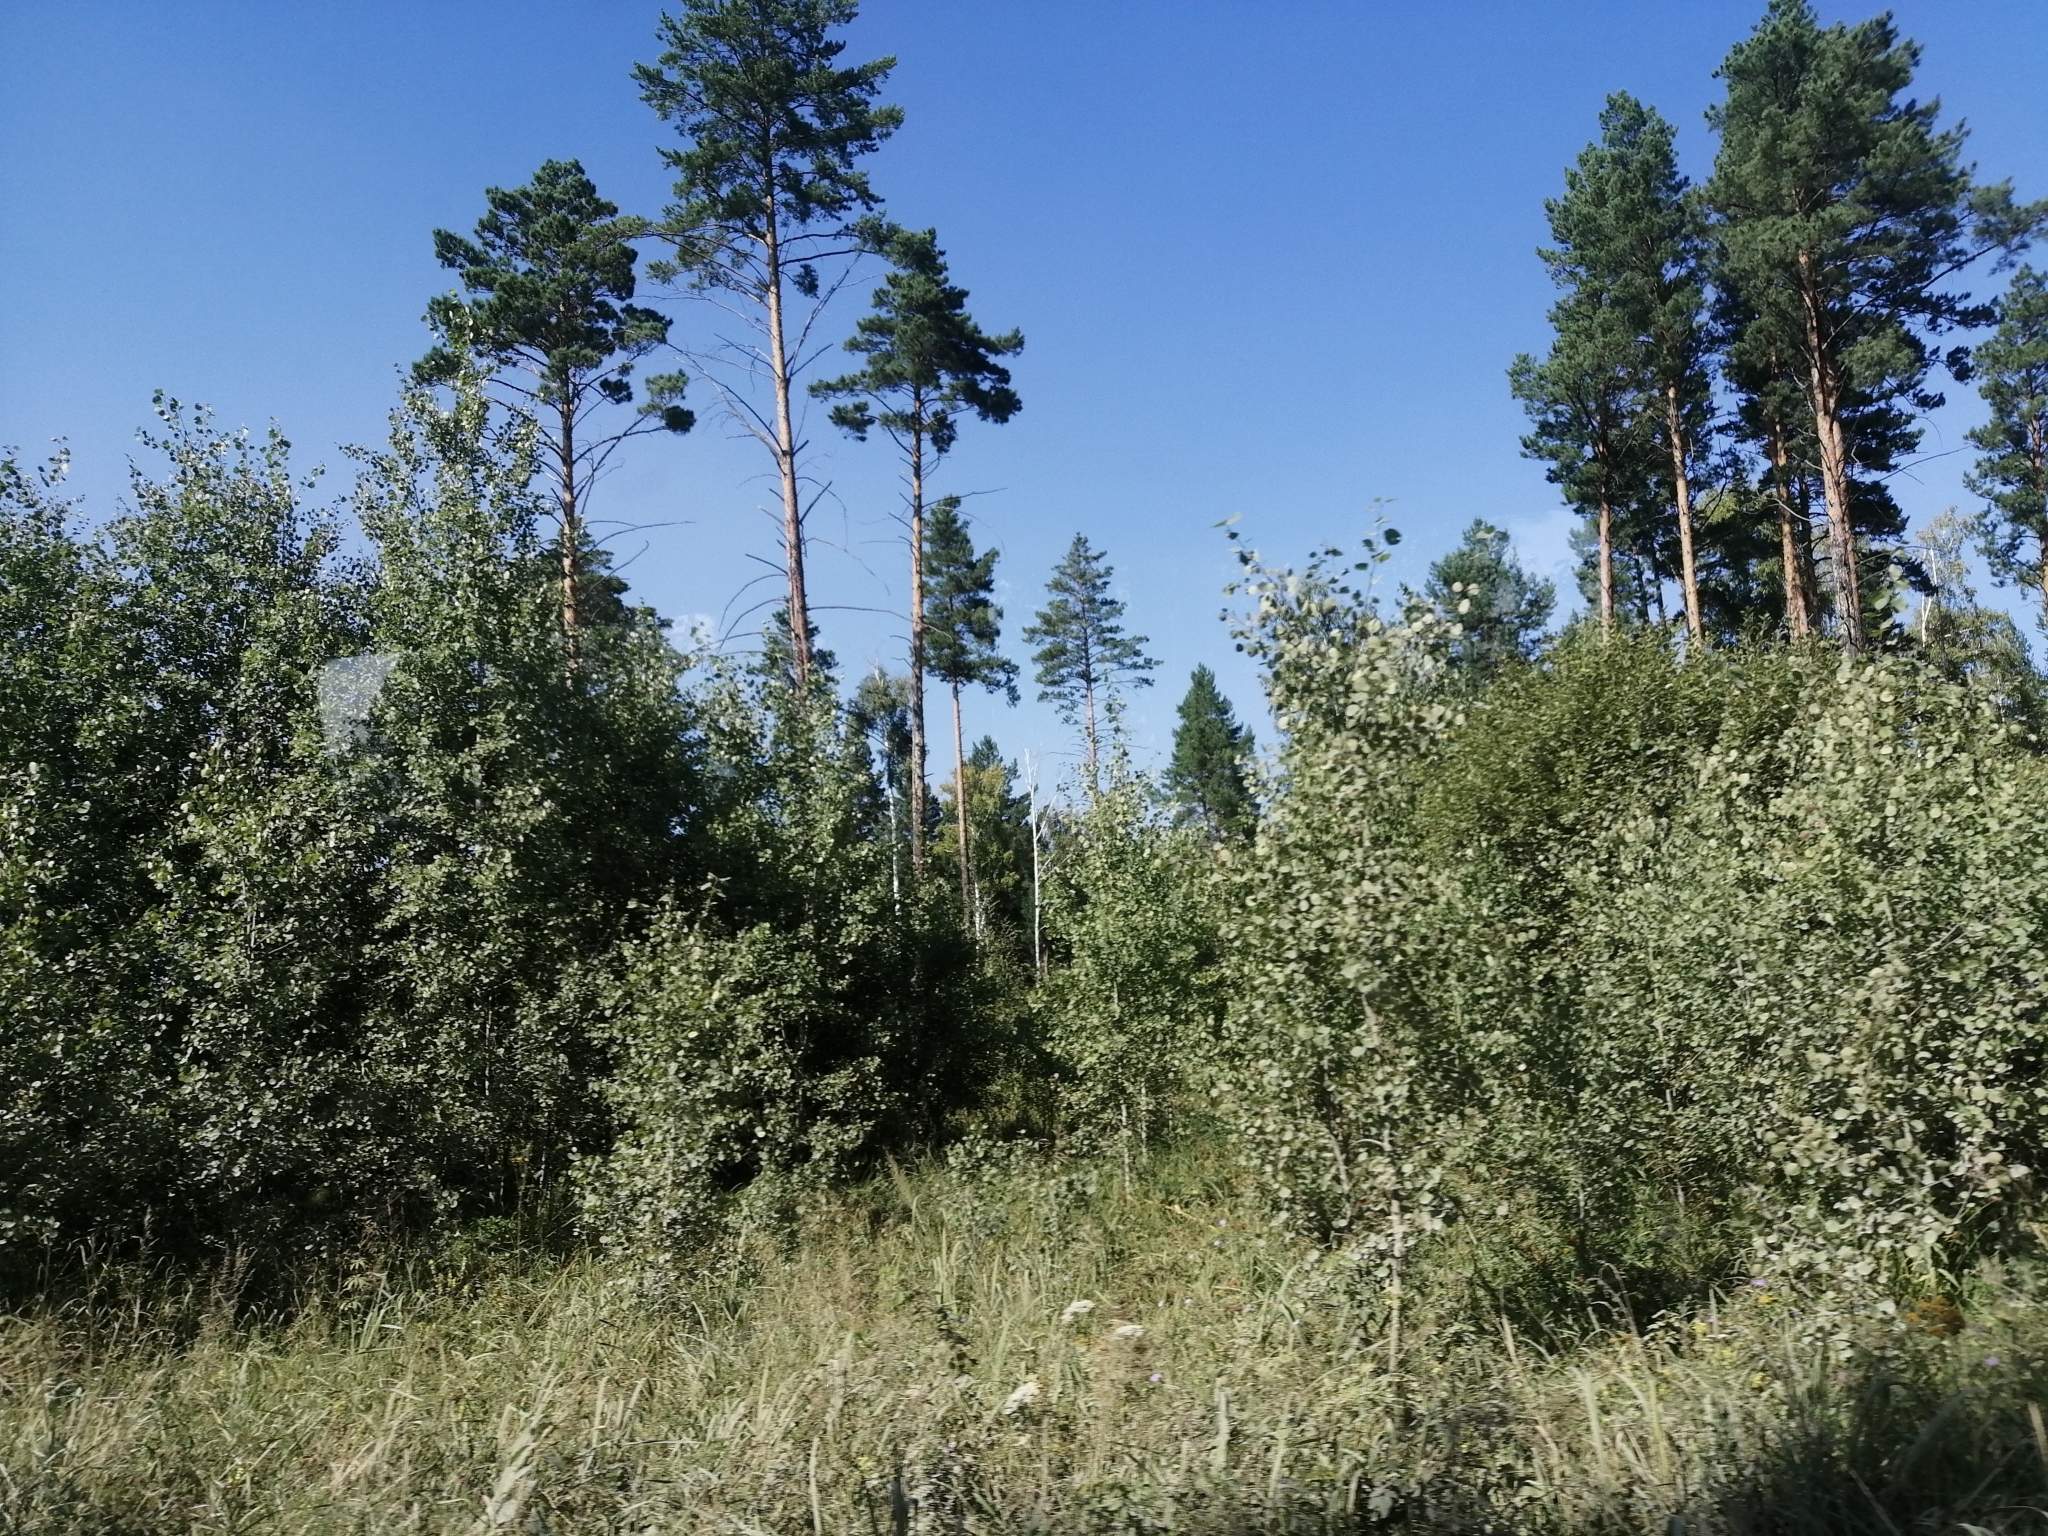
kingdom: Plantae
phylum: Tracheophyta
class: Pinopsida
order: Pinales
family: Pinaceae
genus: Pinus
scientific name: Pinus sylvestris
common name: Scots pine
